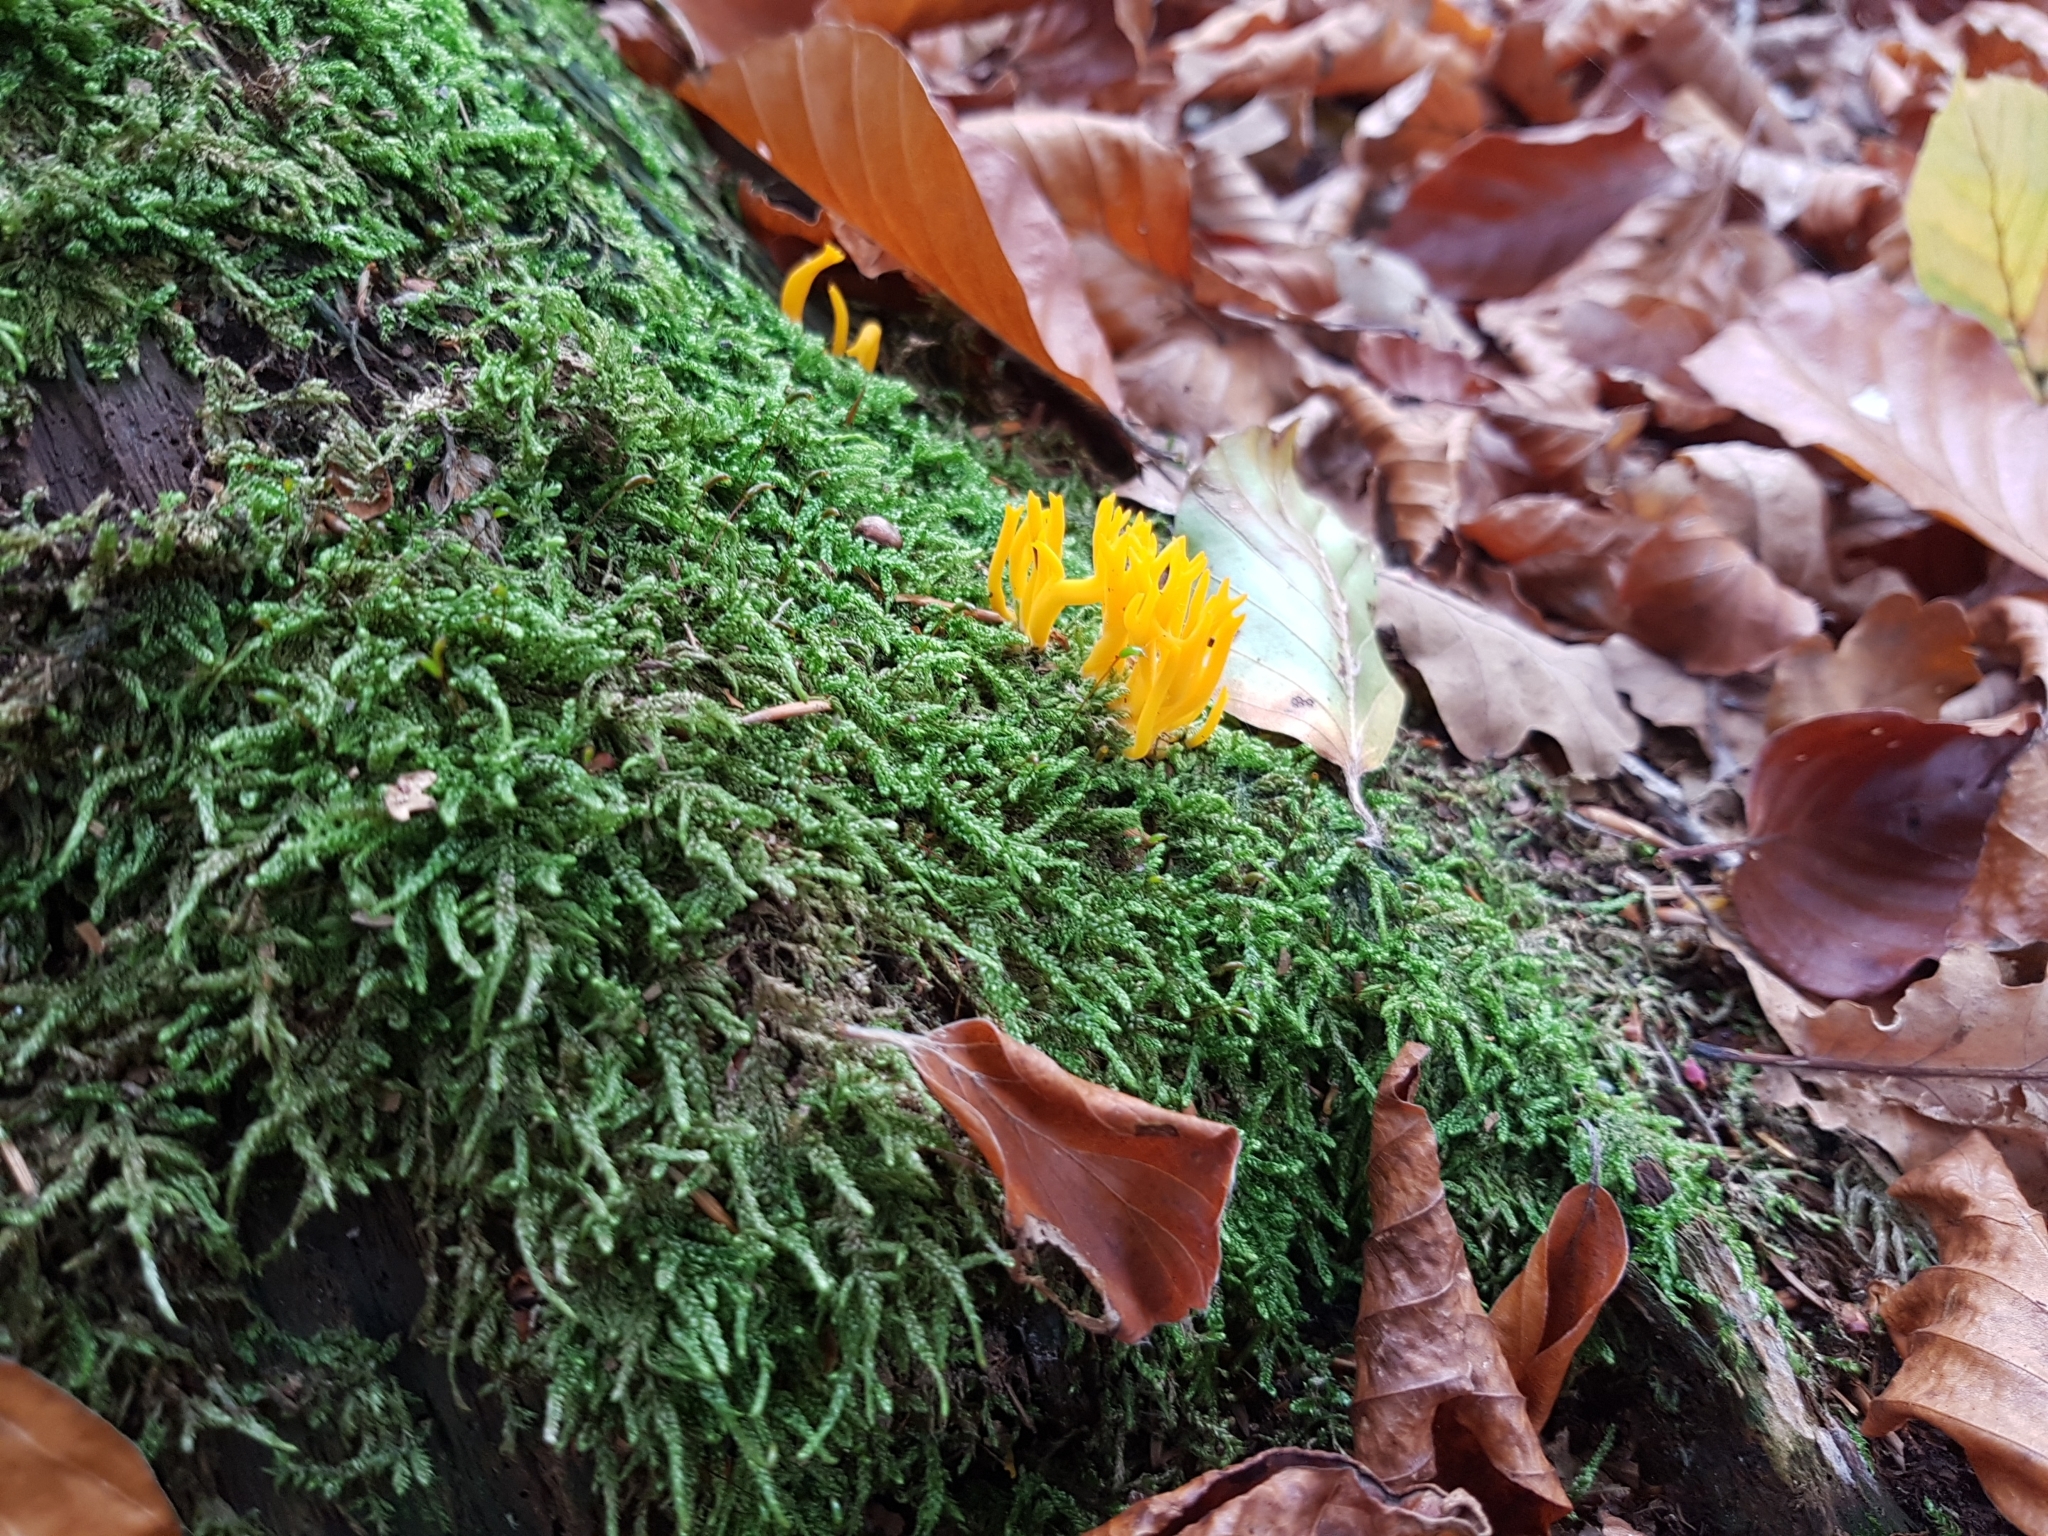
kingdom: Fungi
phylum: Basidiomycota
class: Dacrymycetes
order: Dacrymycetales
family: Dacrymycetaceae
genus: Calocera
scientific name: Calocera viscosa
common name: Yellow stagshorn
